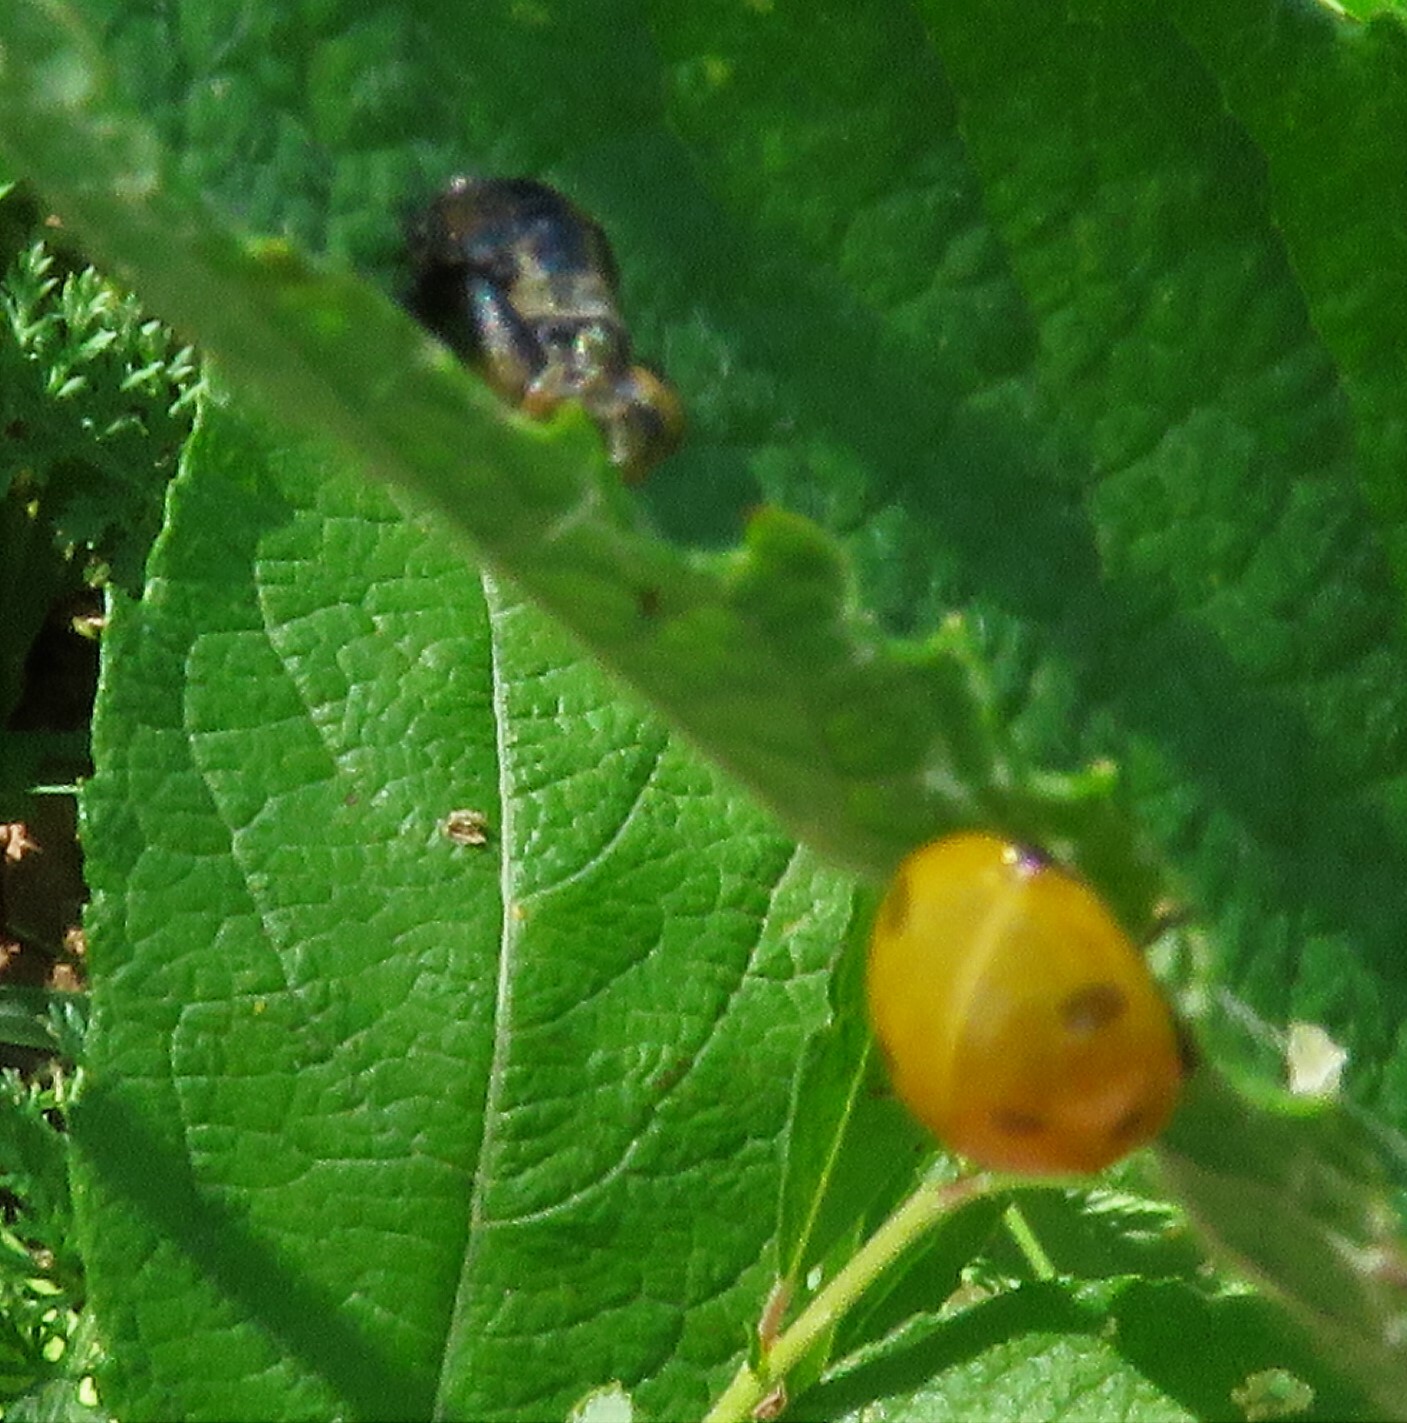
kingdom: Animalia
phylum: Arthropoda
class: Insecta
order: Coleoptera
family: Coccinellidae
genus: Coccinella
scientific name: Coccinella septempunctata
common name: Sevenspotted lady beetle
